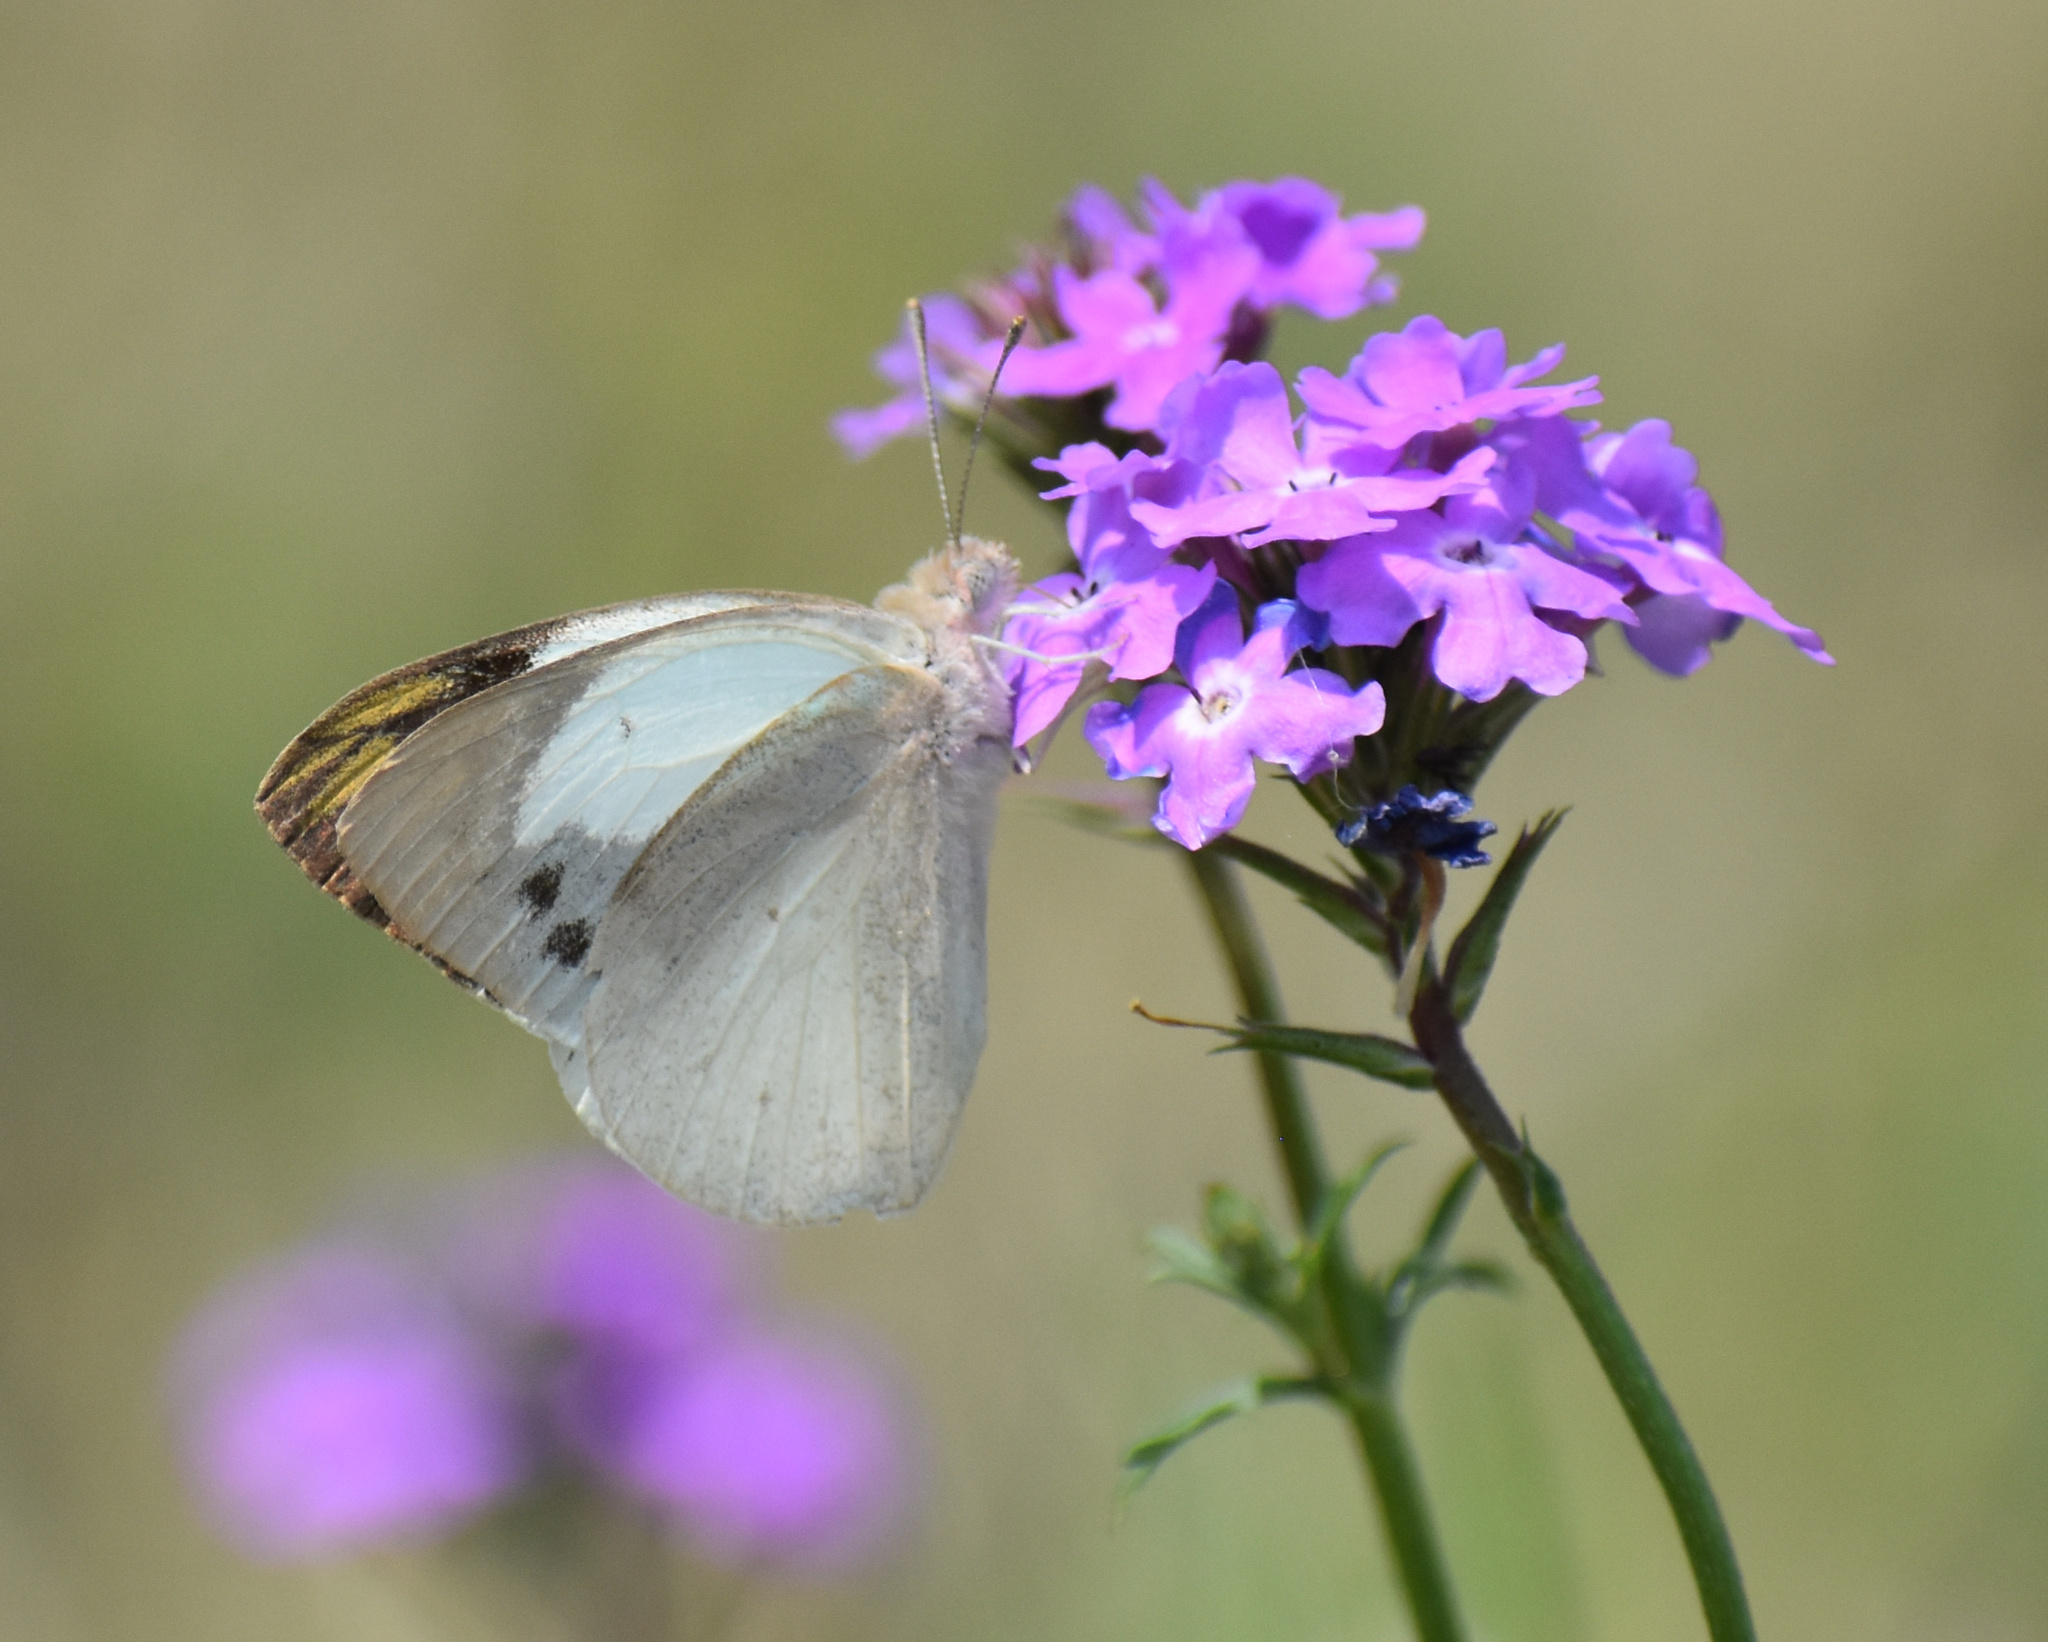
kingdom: Animalia
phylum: Arthropoda
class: Insecta
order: Lepidoptera
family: Pieridae
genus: Colotis
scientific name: Colotis eris
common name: Banded gold tip
